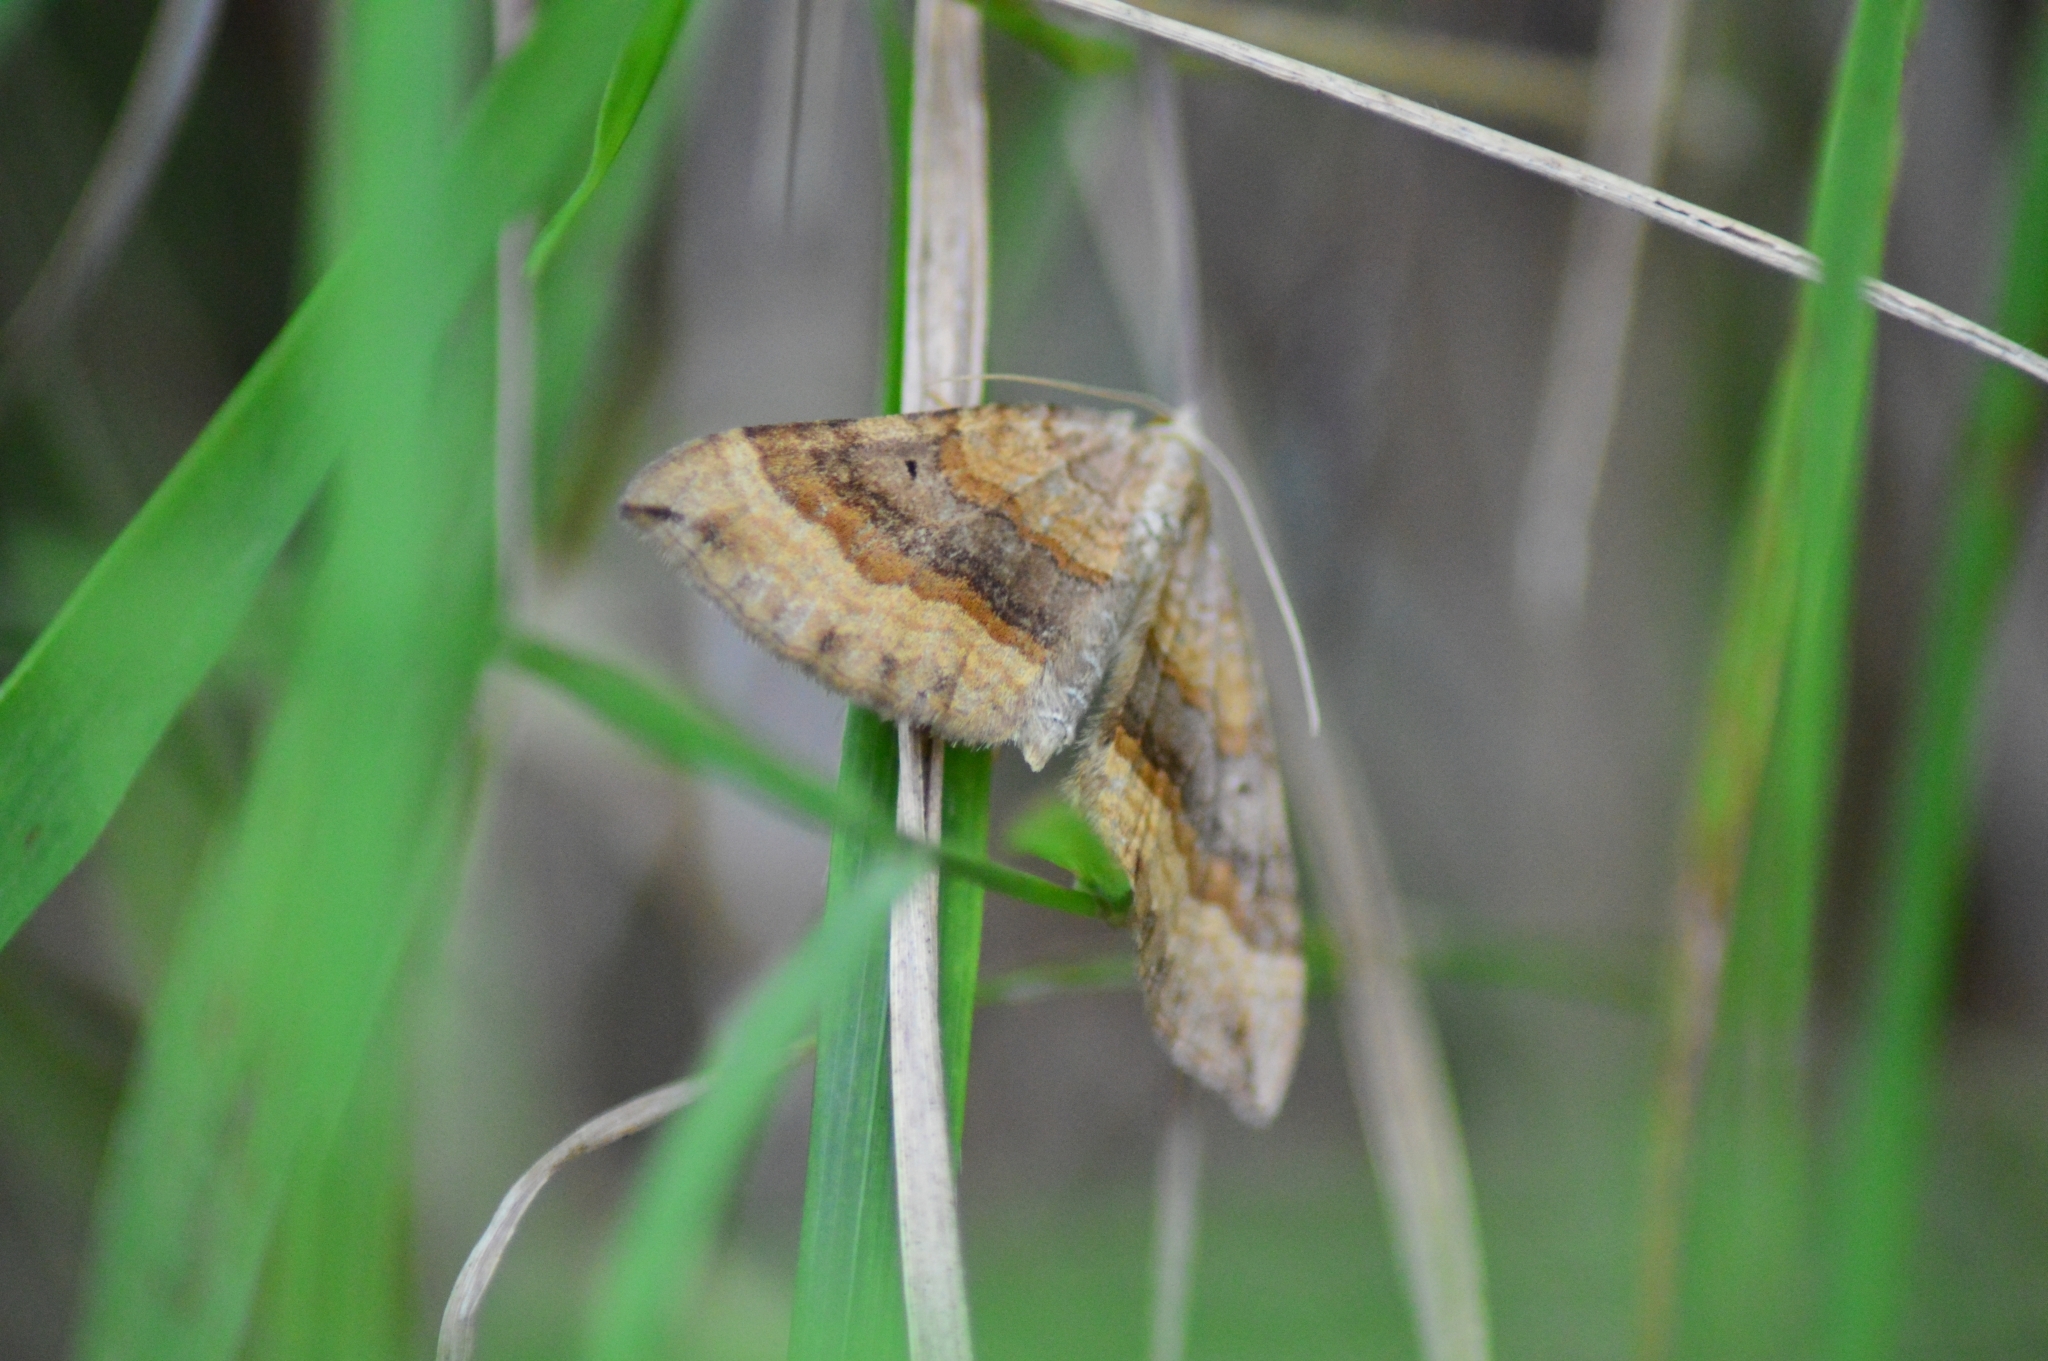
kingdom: Animalia
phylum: Arthropoda
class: Insecta
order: Lepidoptera
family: Geometridae
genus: Scotopteryx
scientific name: Scotopteryx chenopodiata
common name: Shaded broad-bar
